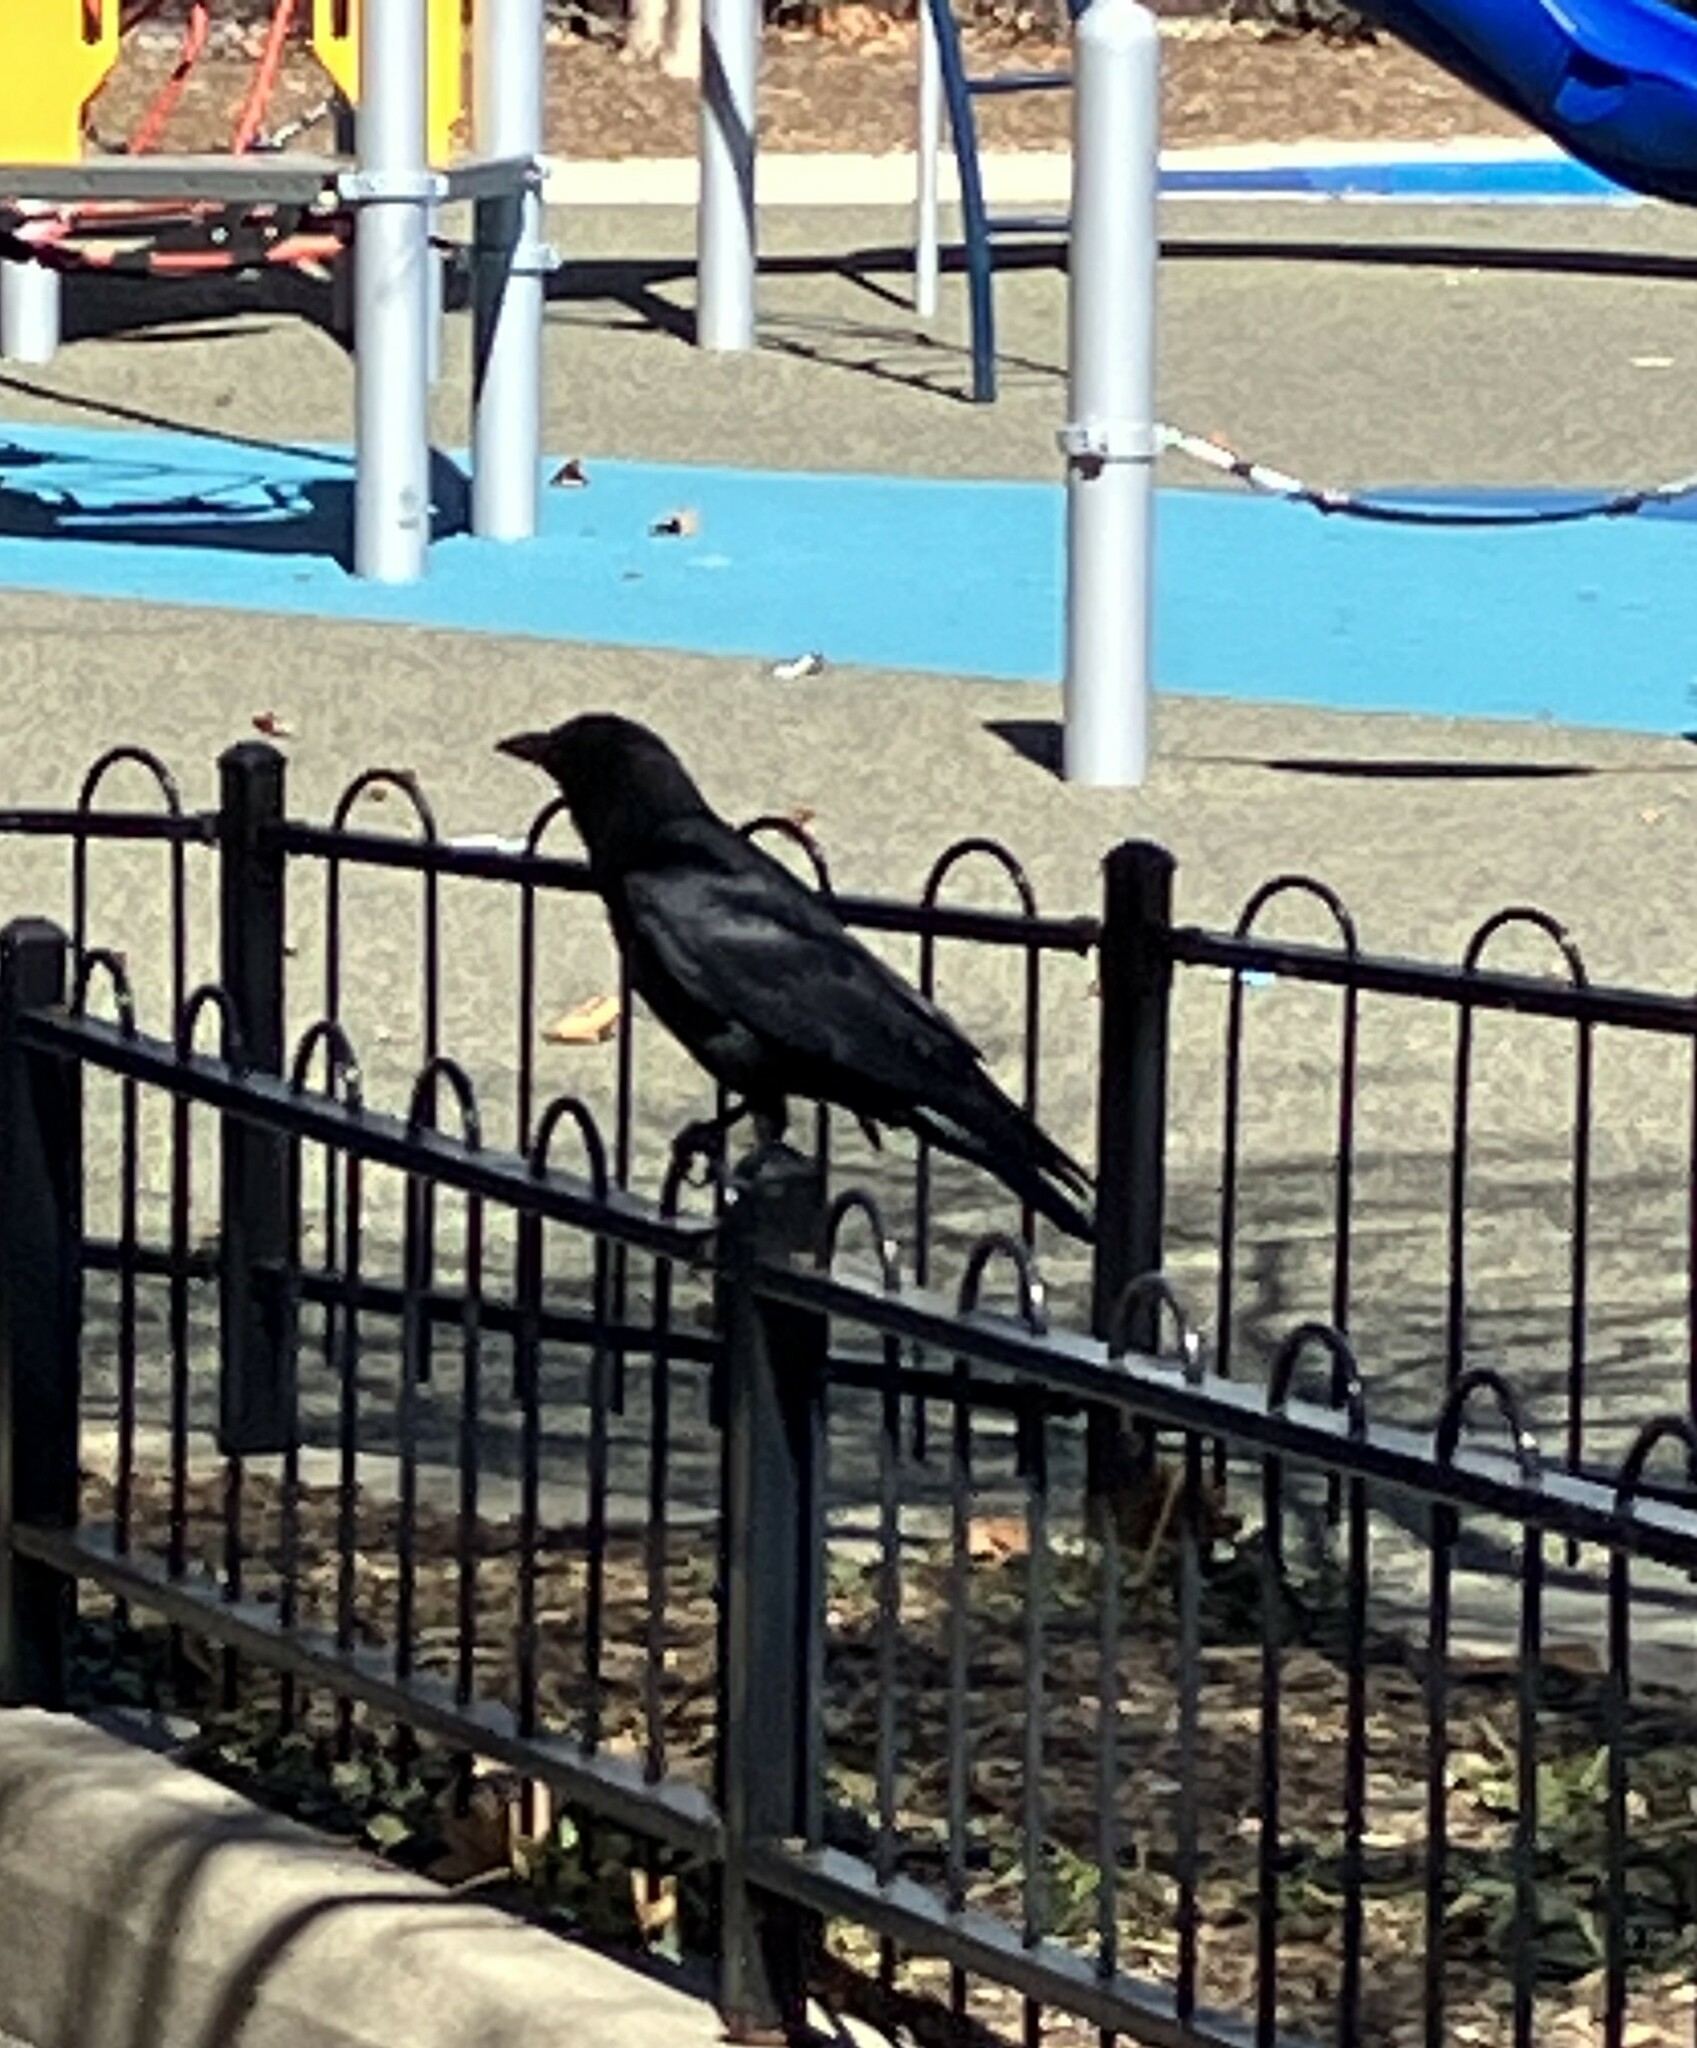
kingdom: Animalia
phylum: Chordata
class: Aves
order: Passeriformes
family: Corvidae
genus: Corvus
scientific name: Corvus brachyrhynchos
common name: American crow
